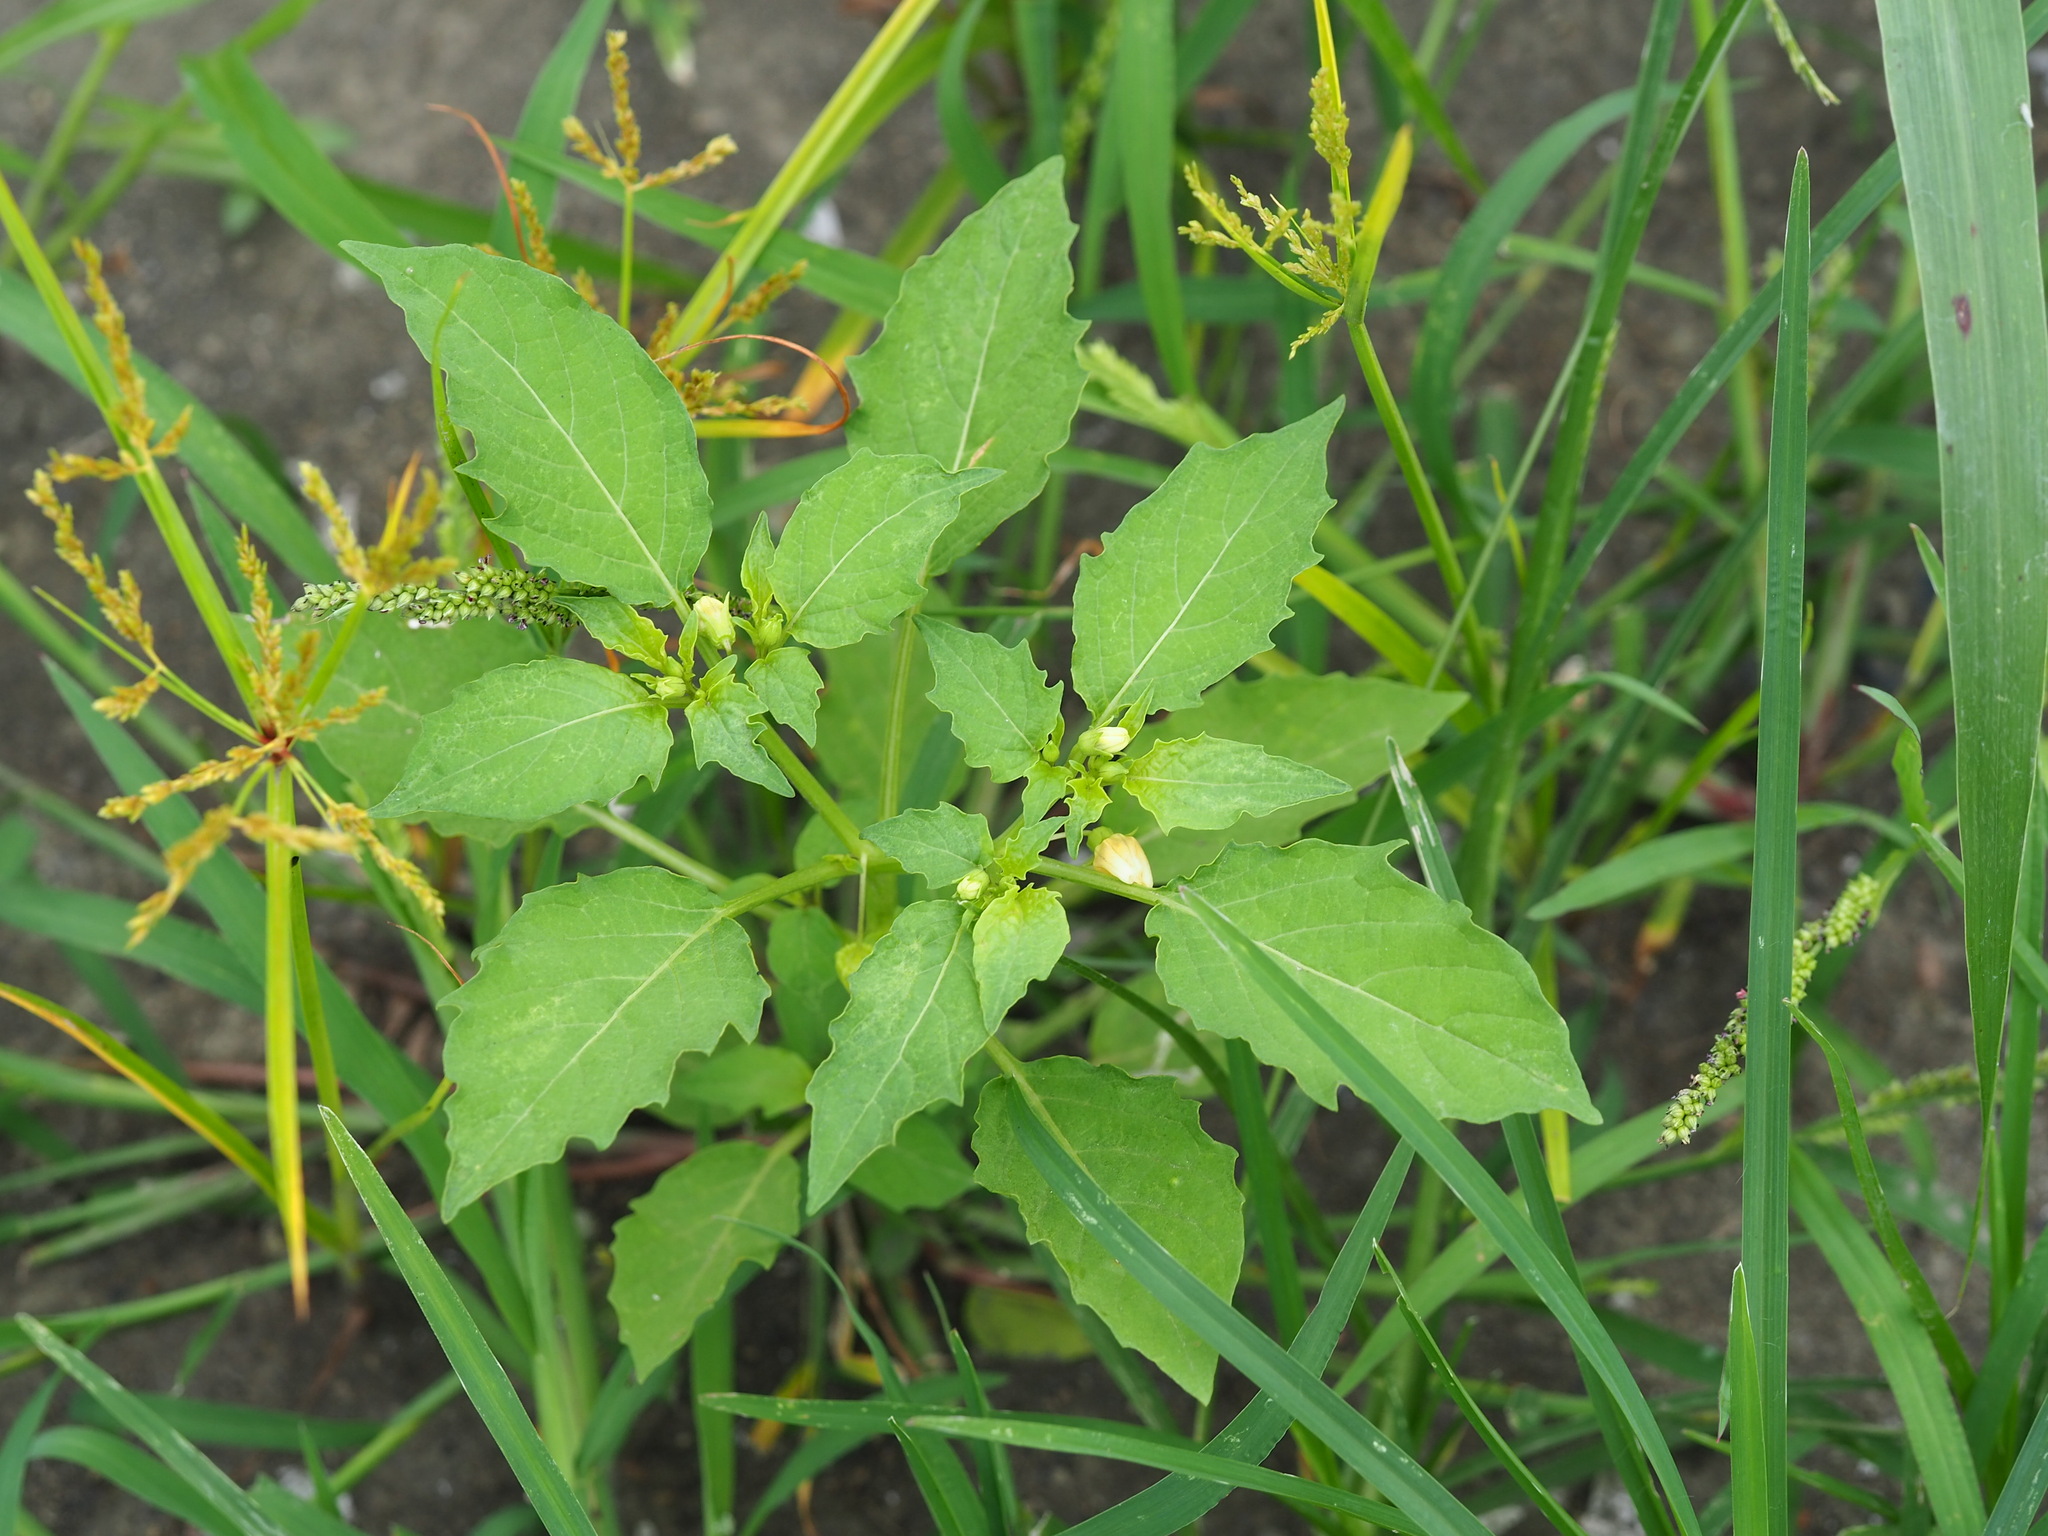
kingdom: Plantae
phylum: Tracheophyta
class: Magnoliopsida
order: Solanales
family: Solanaceae
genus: Physalis
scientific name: Physalis angulata
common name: Angular winter-cherry
